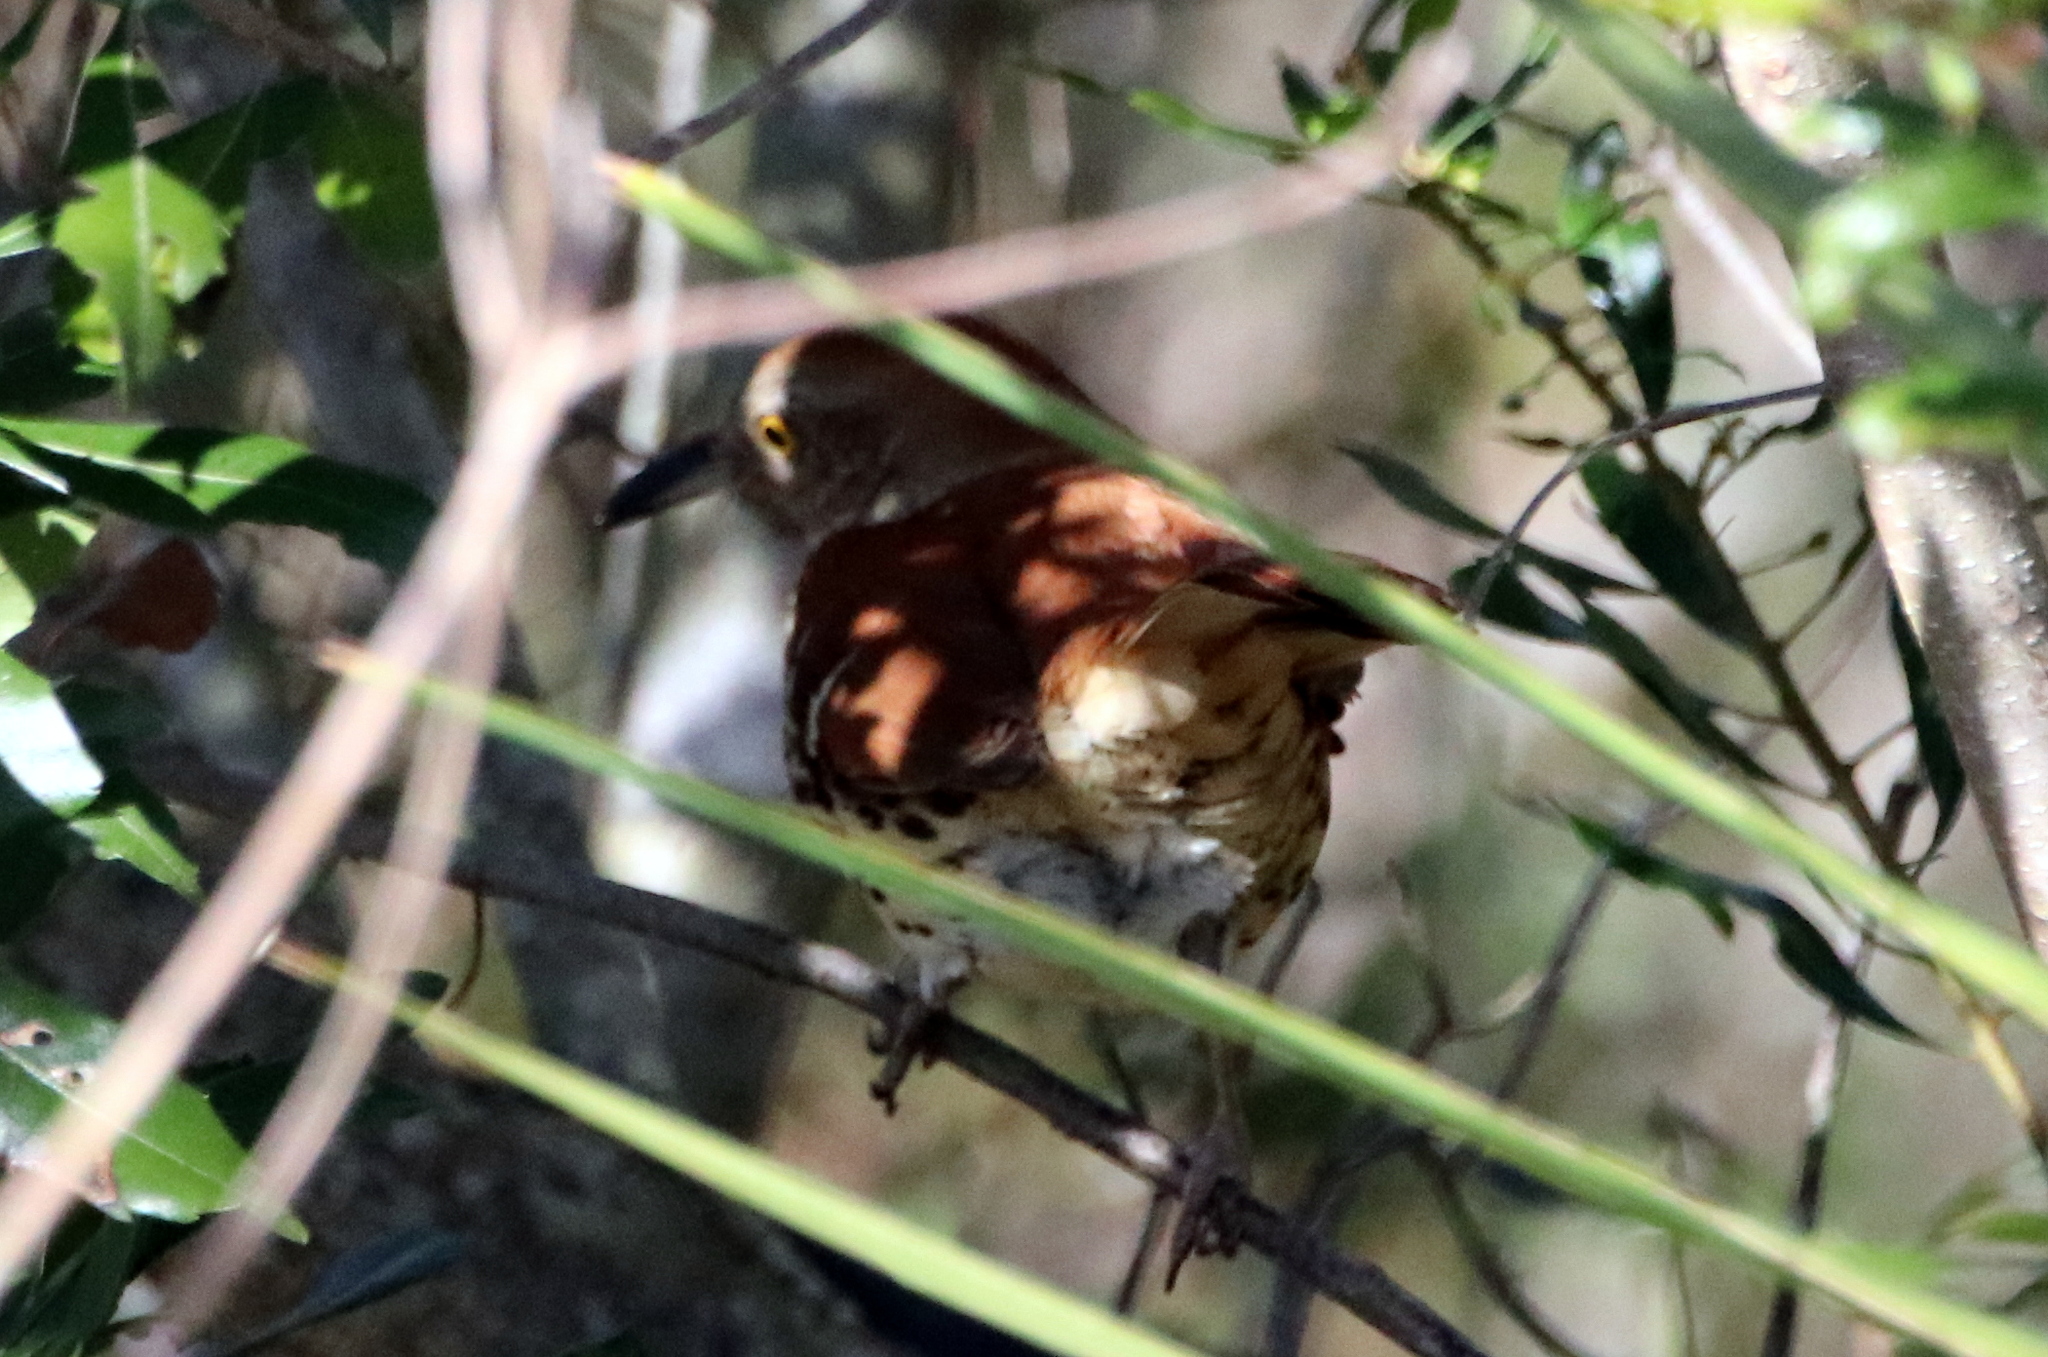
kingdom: Animalia
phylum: Chordata
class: Aves
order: Passeriformes
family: Mimidae
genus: Toxostoma
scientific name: Toxostoma rufum
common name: Brown thrasher
